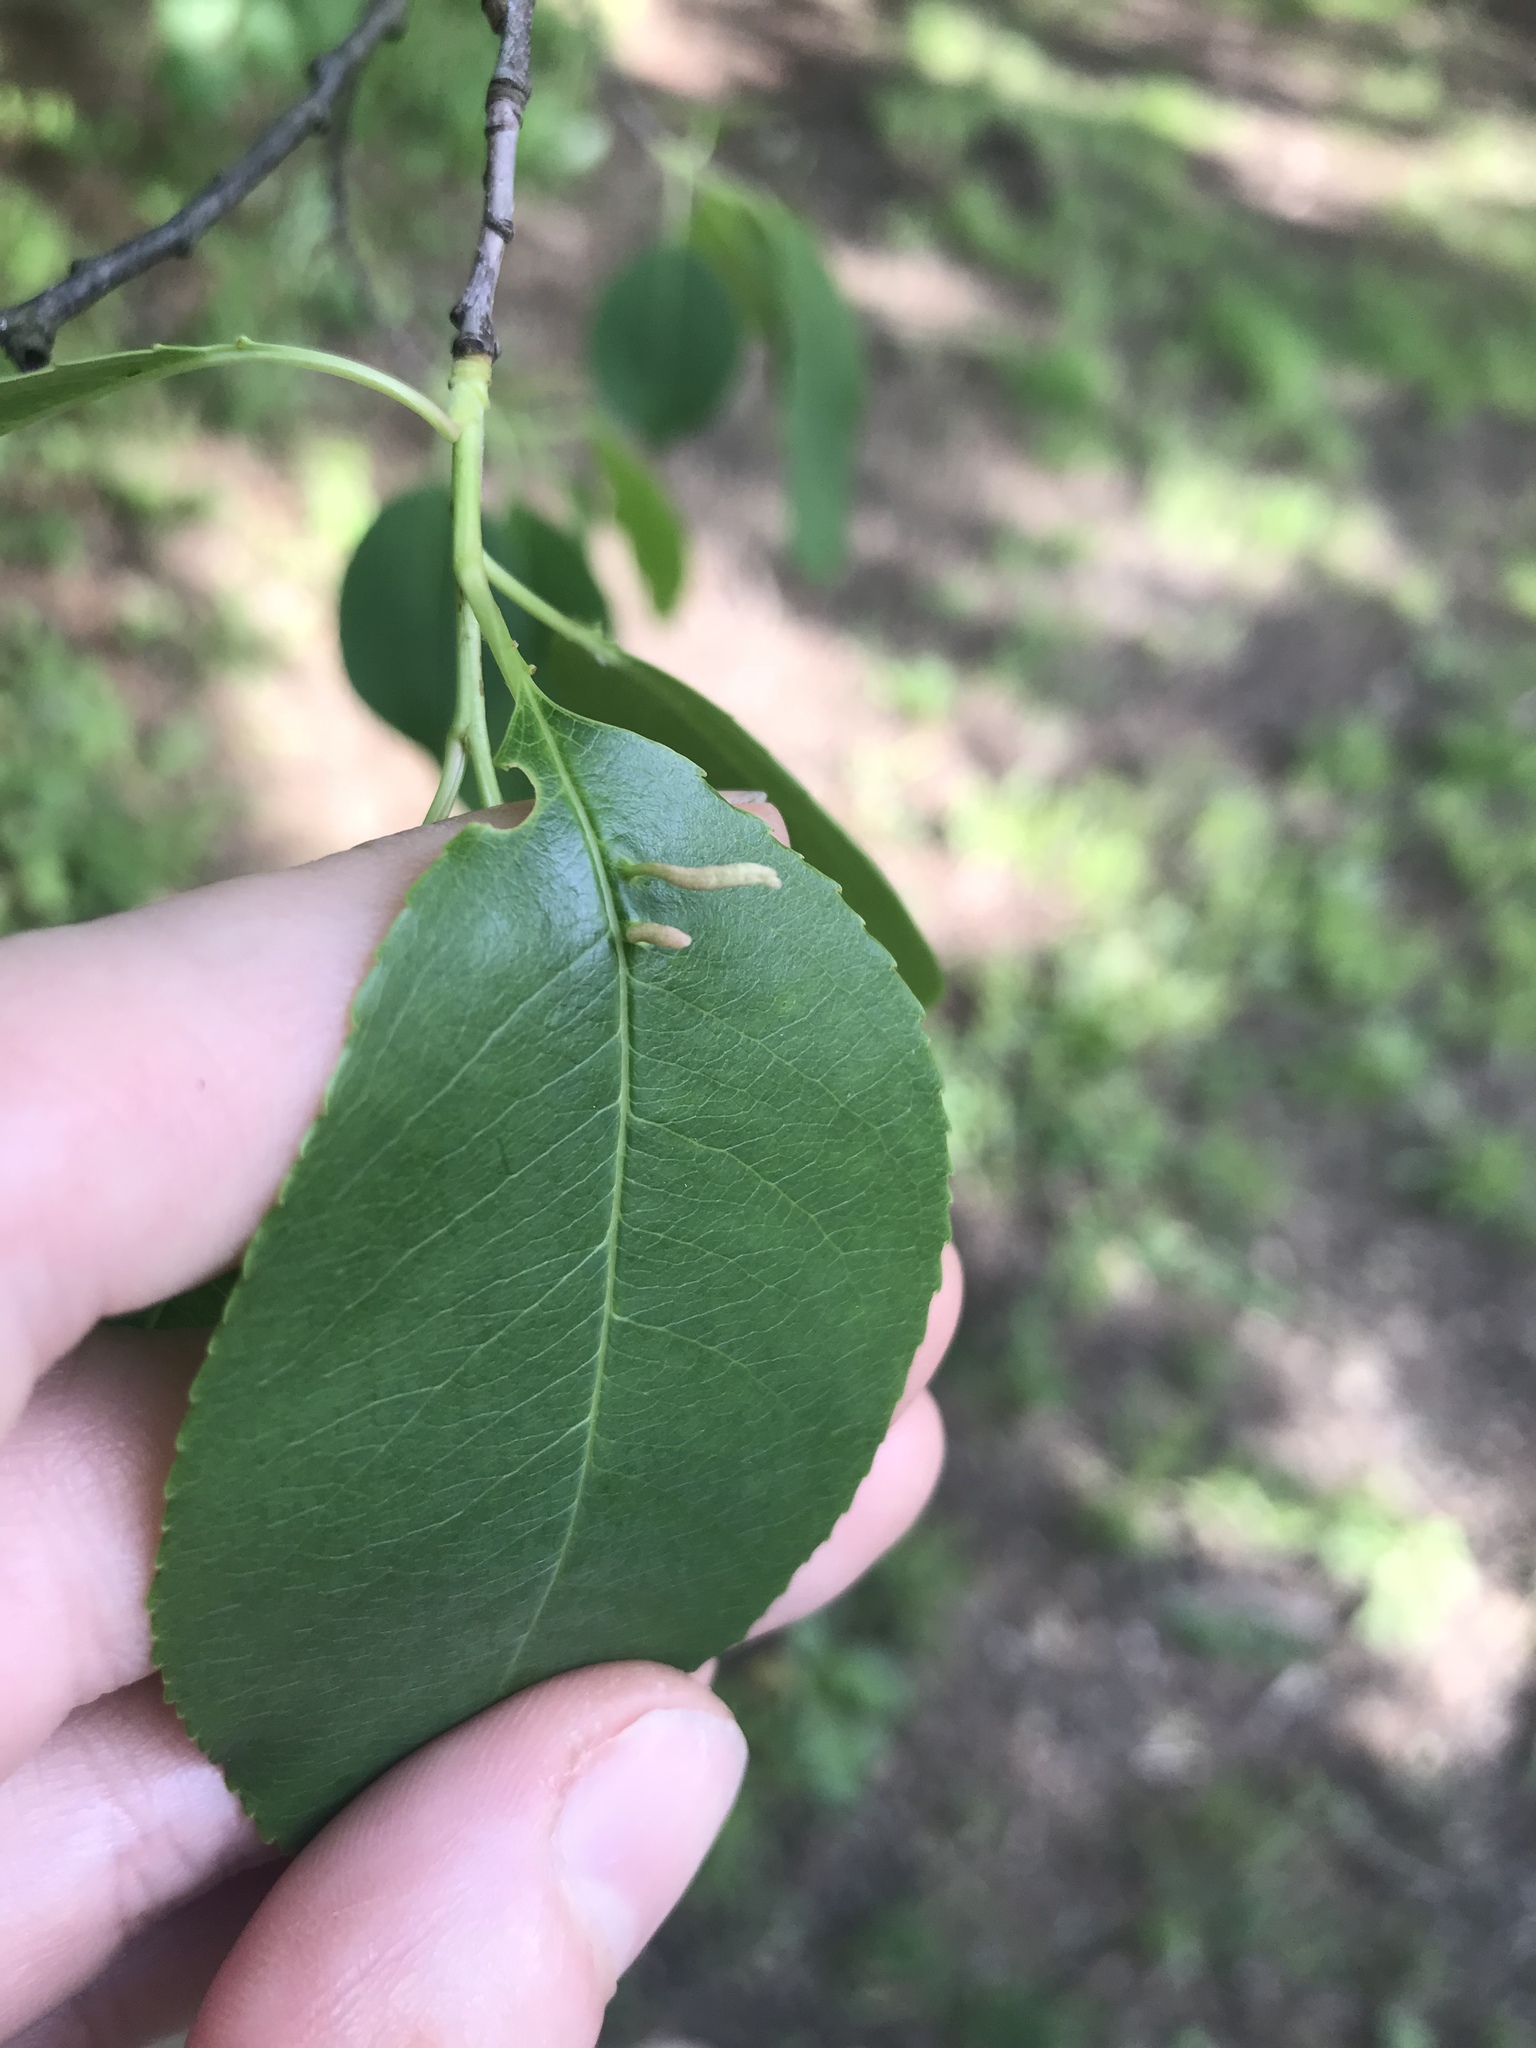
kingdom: Animalia
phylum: Arthropoda
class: Arachnida
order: Trombidiformes
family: Eriophyidae
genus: Eriophyes
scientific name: Eriophyes
